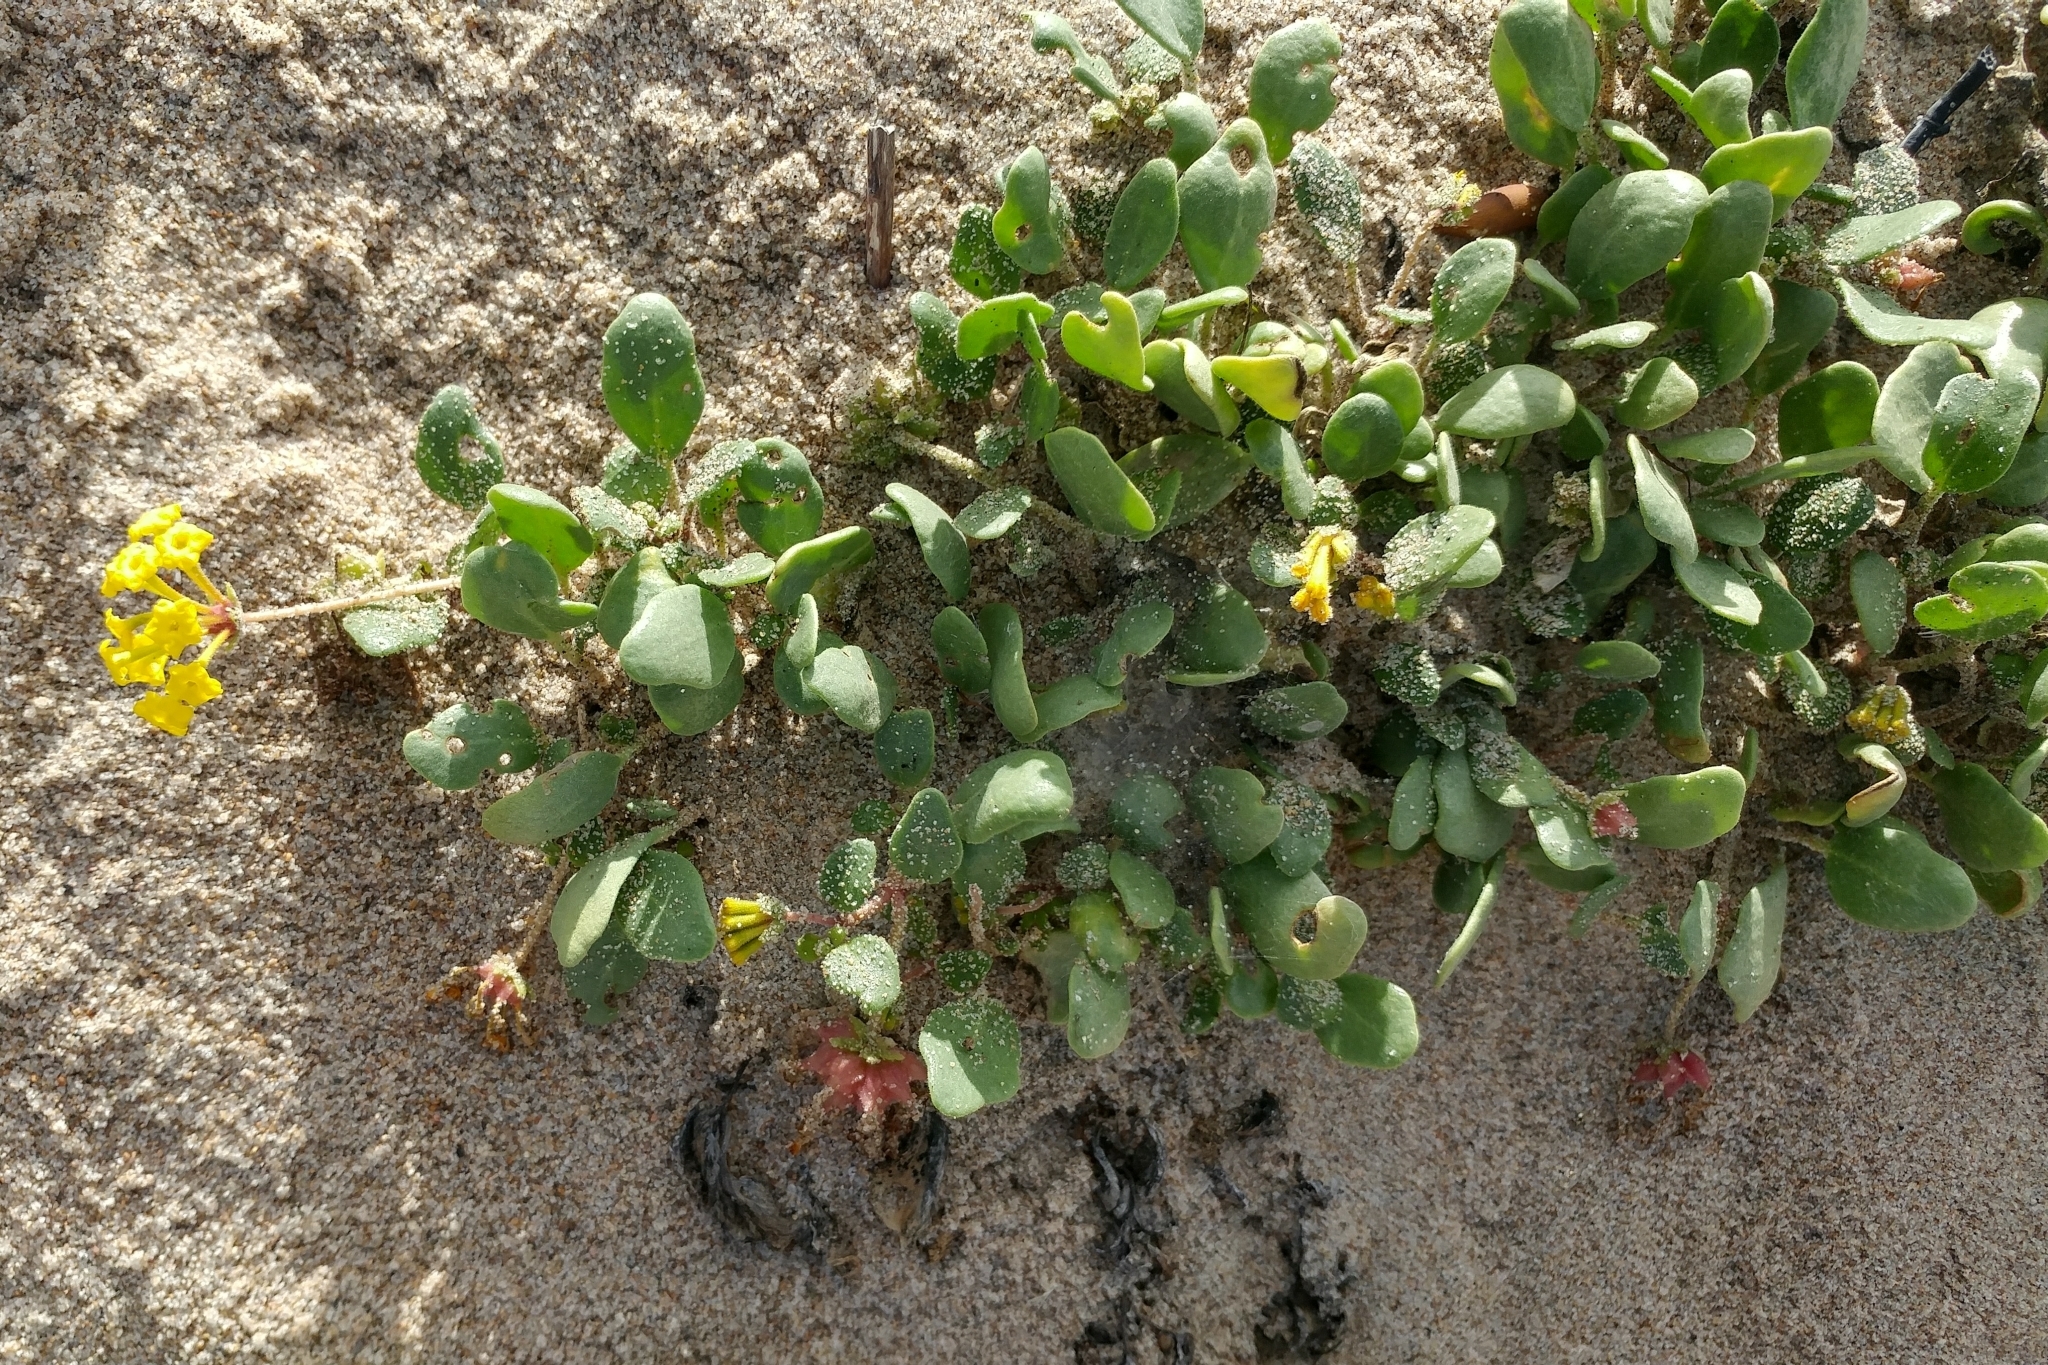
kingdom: Plantae
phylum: Tracheophyta
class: Magnoliopsida
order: Caryophyllales
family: Nyctaginaceae
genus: Abronia
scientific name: Abronia latifolia
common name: Yellow sand-verbena
